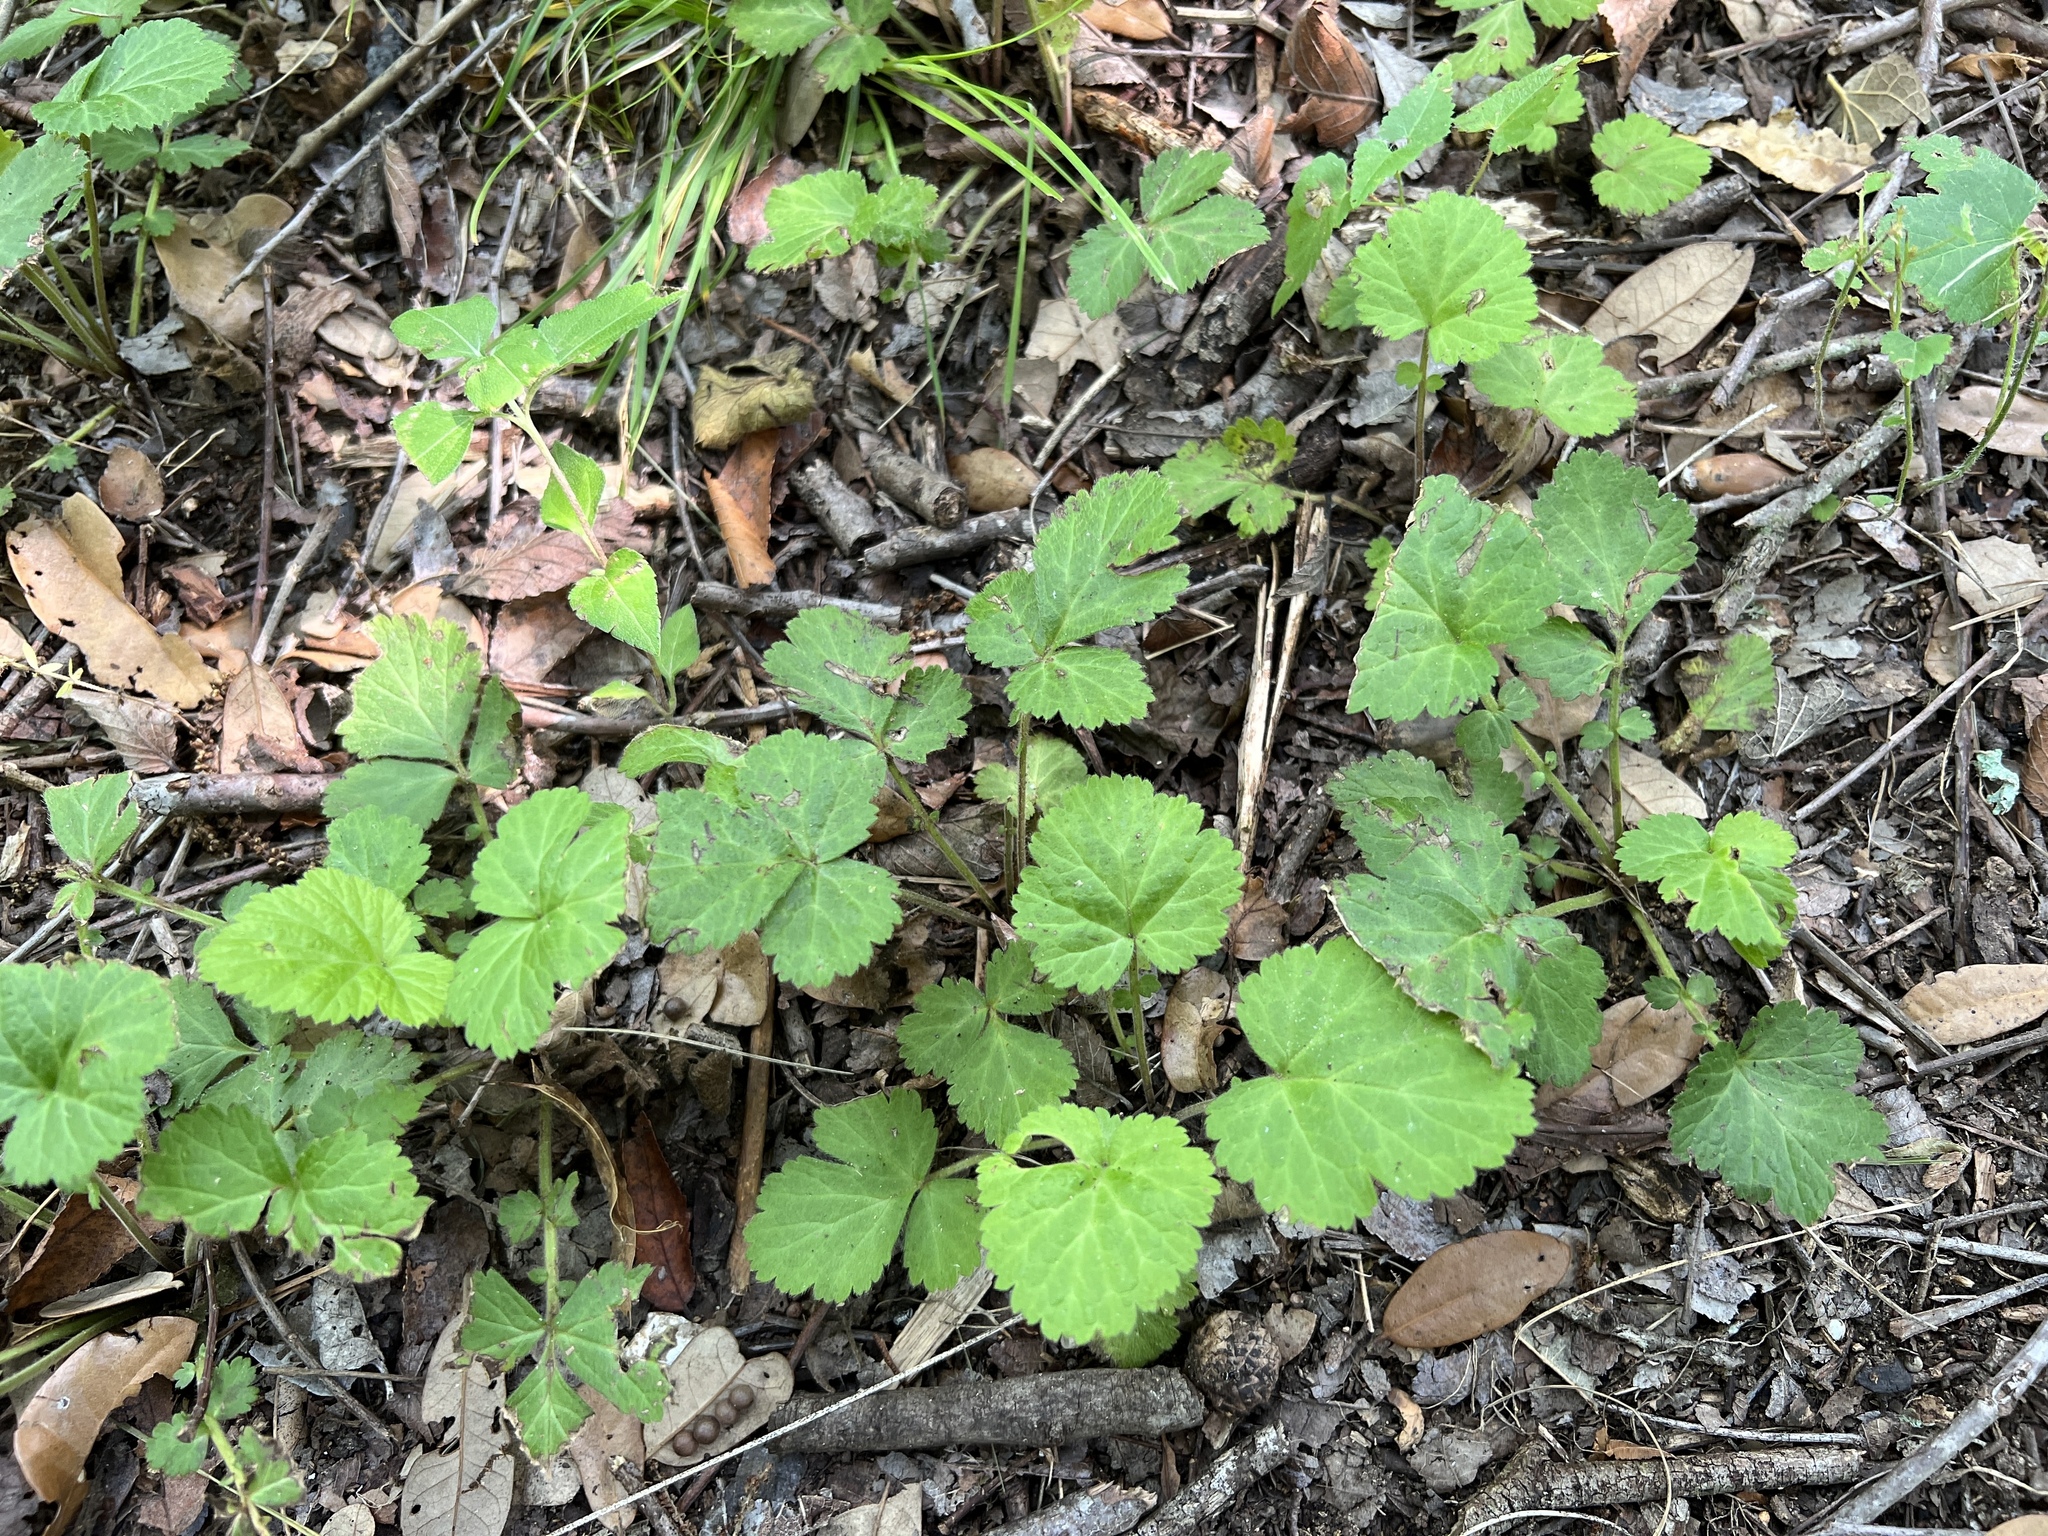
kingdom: Plantae
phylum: Tracheophyta
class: Magnoliopsida
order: Rosales
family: Rosaceae
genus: Geum
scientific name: Geum canadense
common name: White avens
